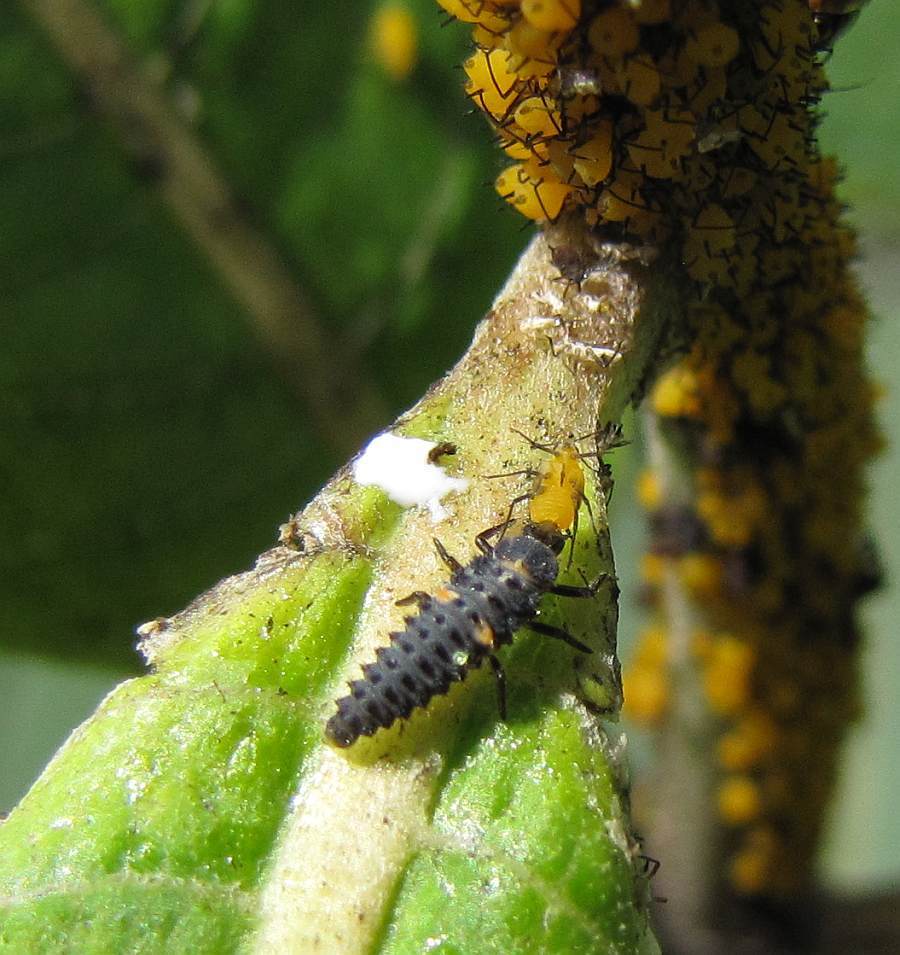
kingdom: Animalia
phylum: Arthropoda
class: Insecta
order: Coleoptera
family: Coccinellidae
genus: Hippodamia
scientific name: Hippodamia variegata
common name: Ladybird beetle
